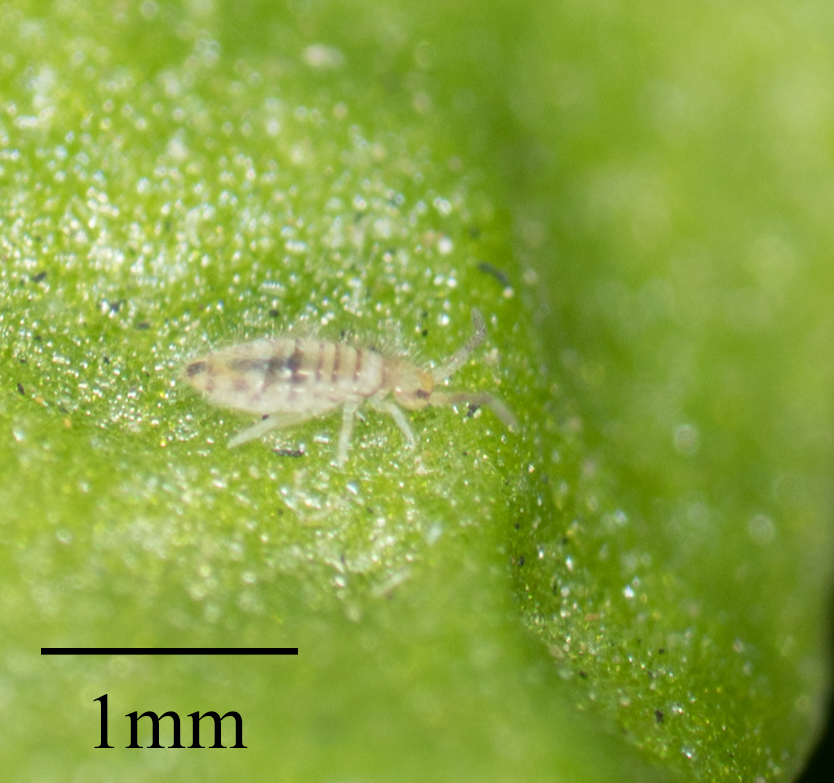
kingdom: Animalia
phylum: Arthropoda
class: Collembola
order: Entomobryomorpha
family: Entomobryidae
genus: Entomobrya
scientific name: Entomobrya atrocincta
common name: Springtail
